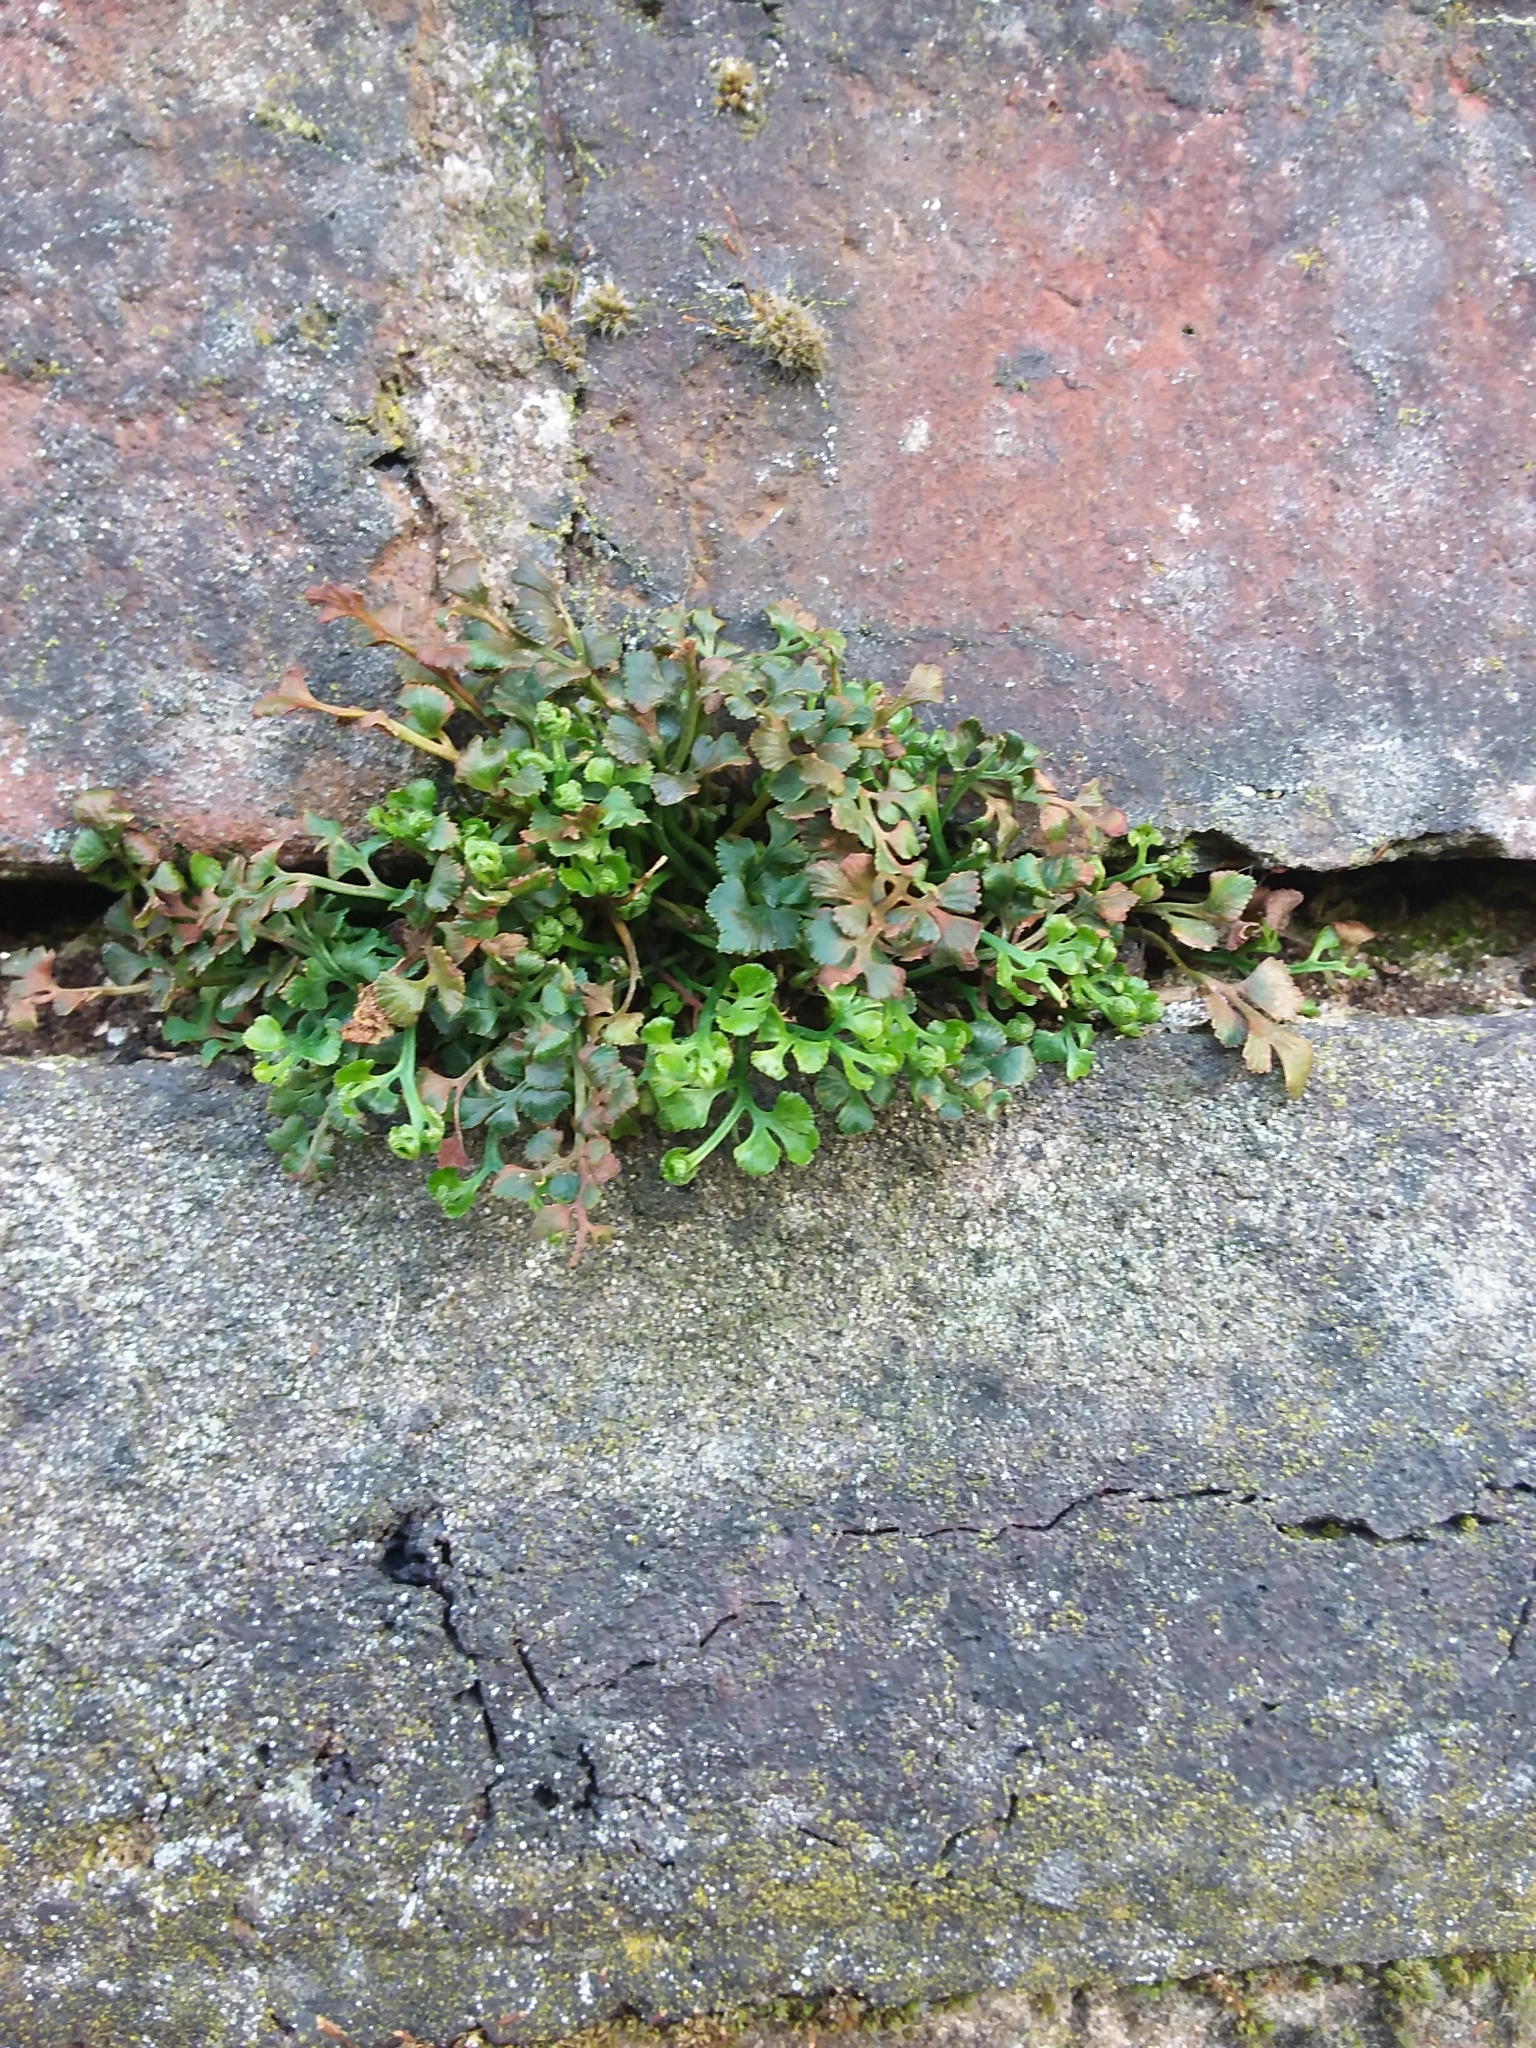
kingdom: Plantae
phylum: Tracheophyta
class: Polypodiopsida
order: Polypodiales
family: Aspleniaceae
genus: Asplenium
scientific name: Asplenium ruta-muraria
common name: Wall-rue
